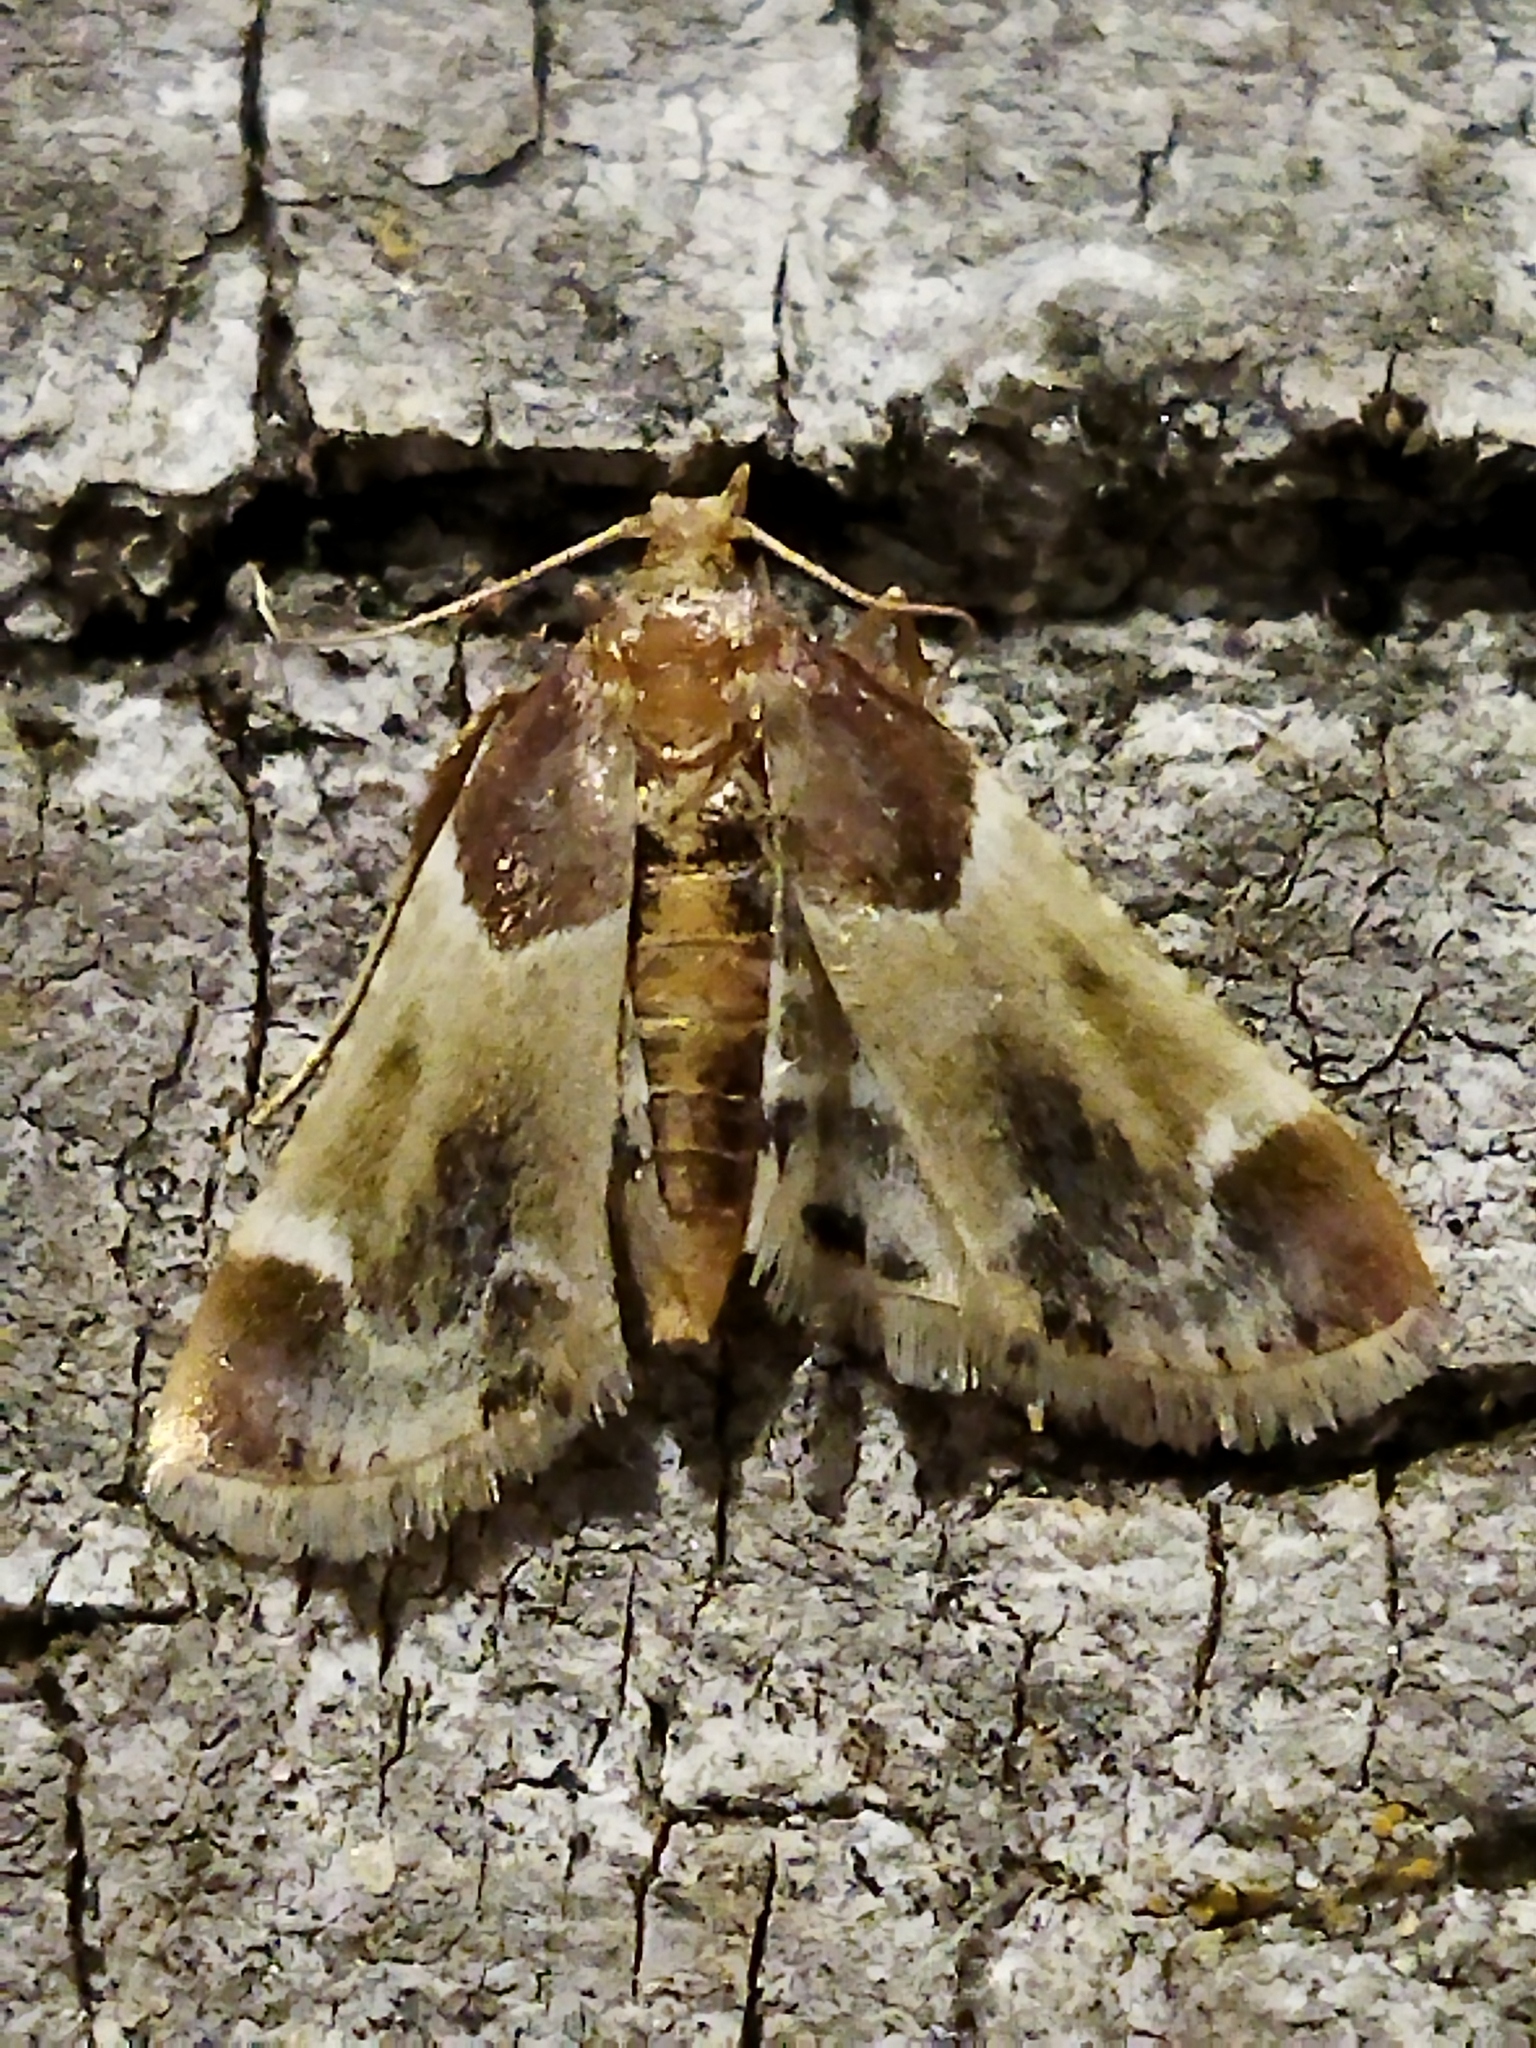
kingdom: Animalia
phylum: Arthropoda
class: Insecta
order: Lepidoptera
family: Pyralidae
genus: Pyralis
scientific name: Pyralis farinalis
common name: Meal moth
